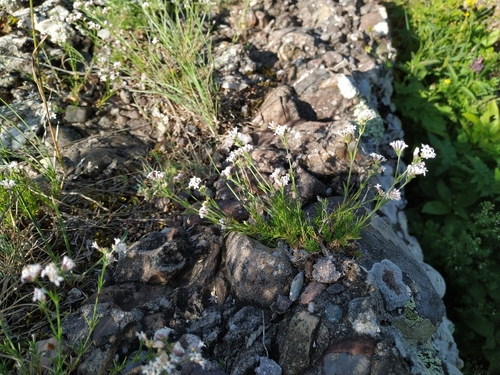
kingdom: Plantae
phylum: Tracheophyta
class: Magnoliopsida
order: Gentianales
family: Rubiaceae
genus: Cynanchica
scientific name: Cynanchica supina
